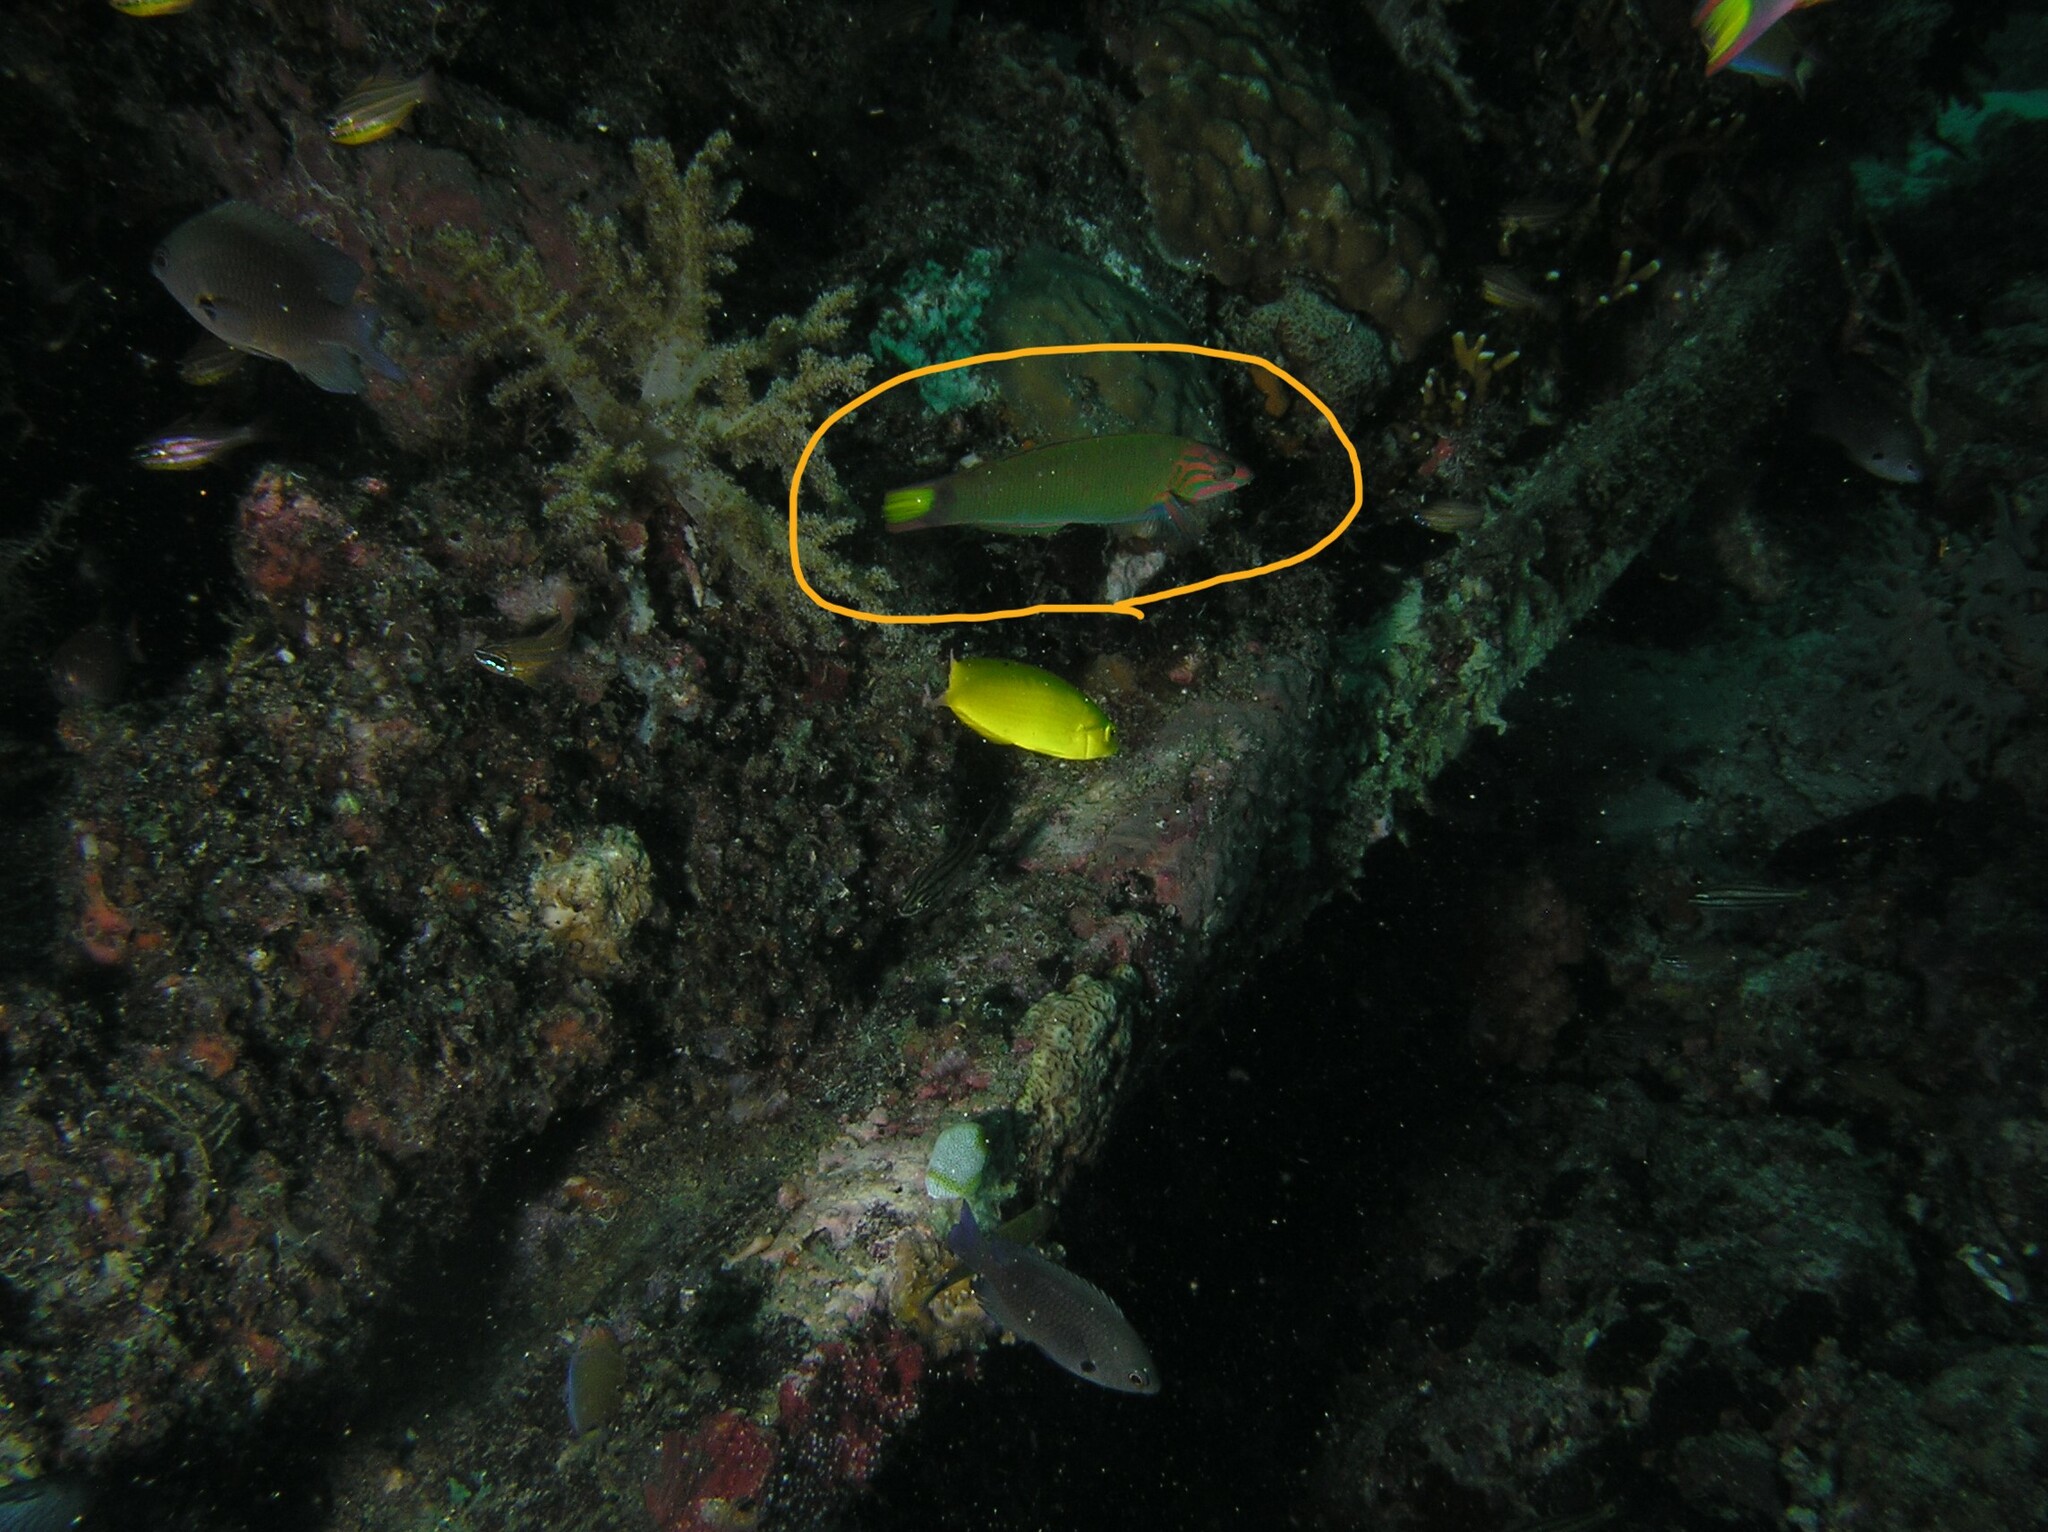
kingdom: Animalia
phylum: Chordata
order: Perciformes
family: Labridae
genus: Thalassoma
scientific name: Thalassoma lunare
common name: Blue wrasse
